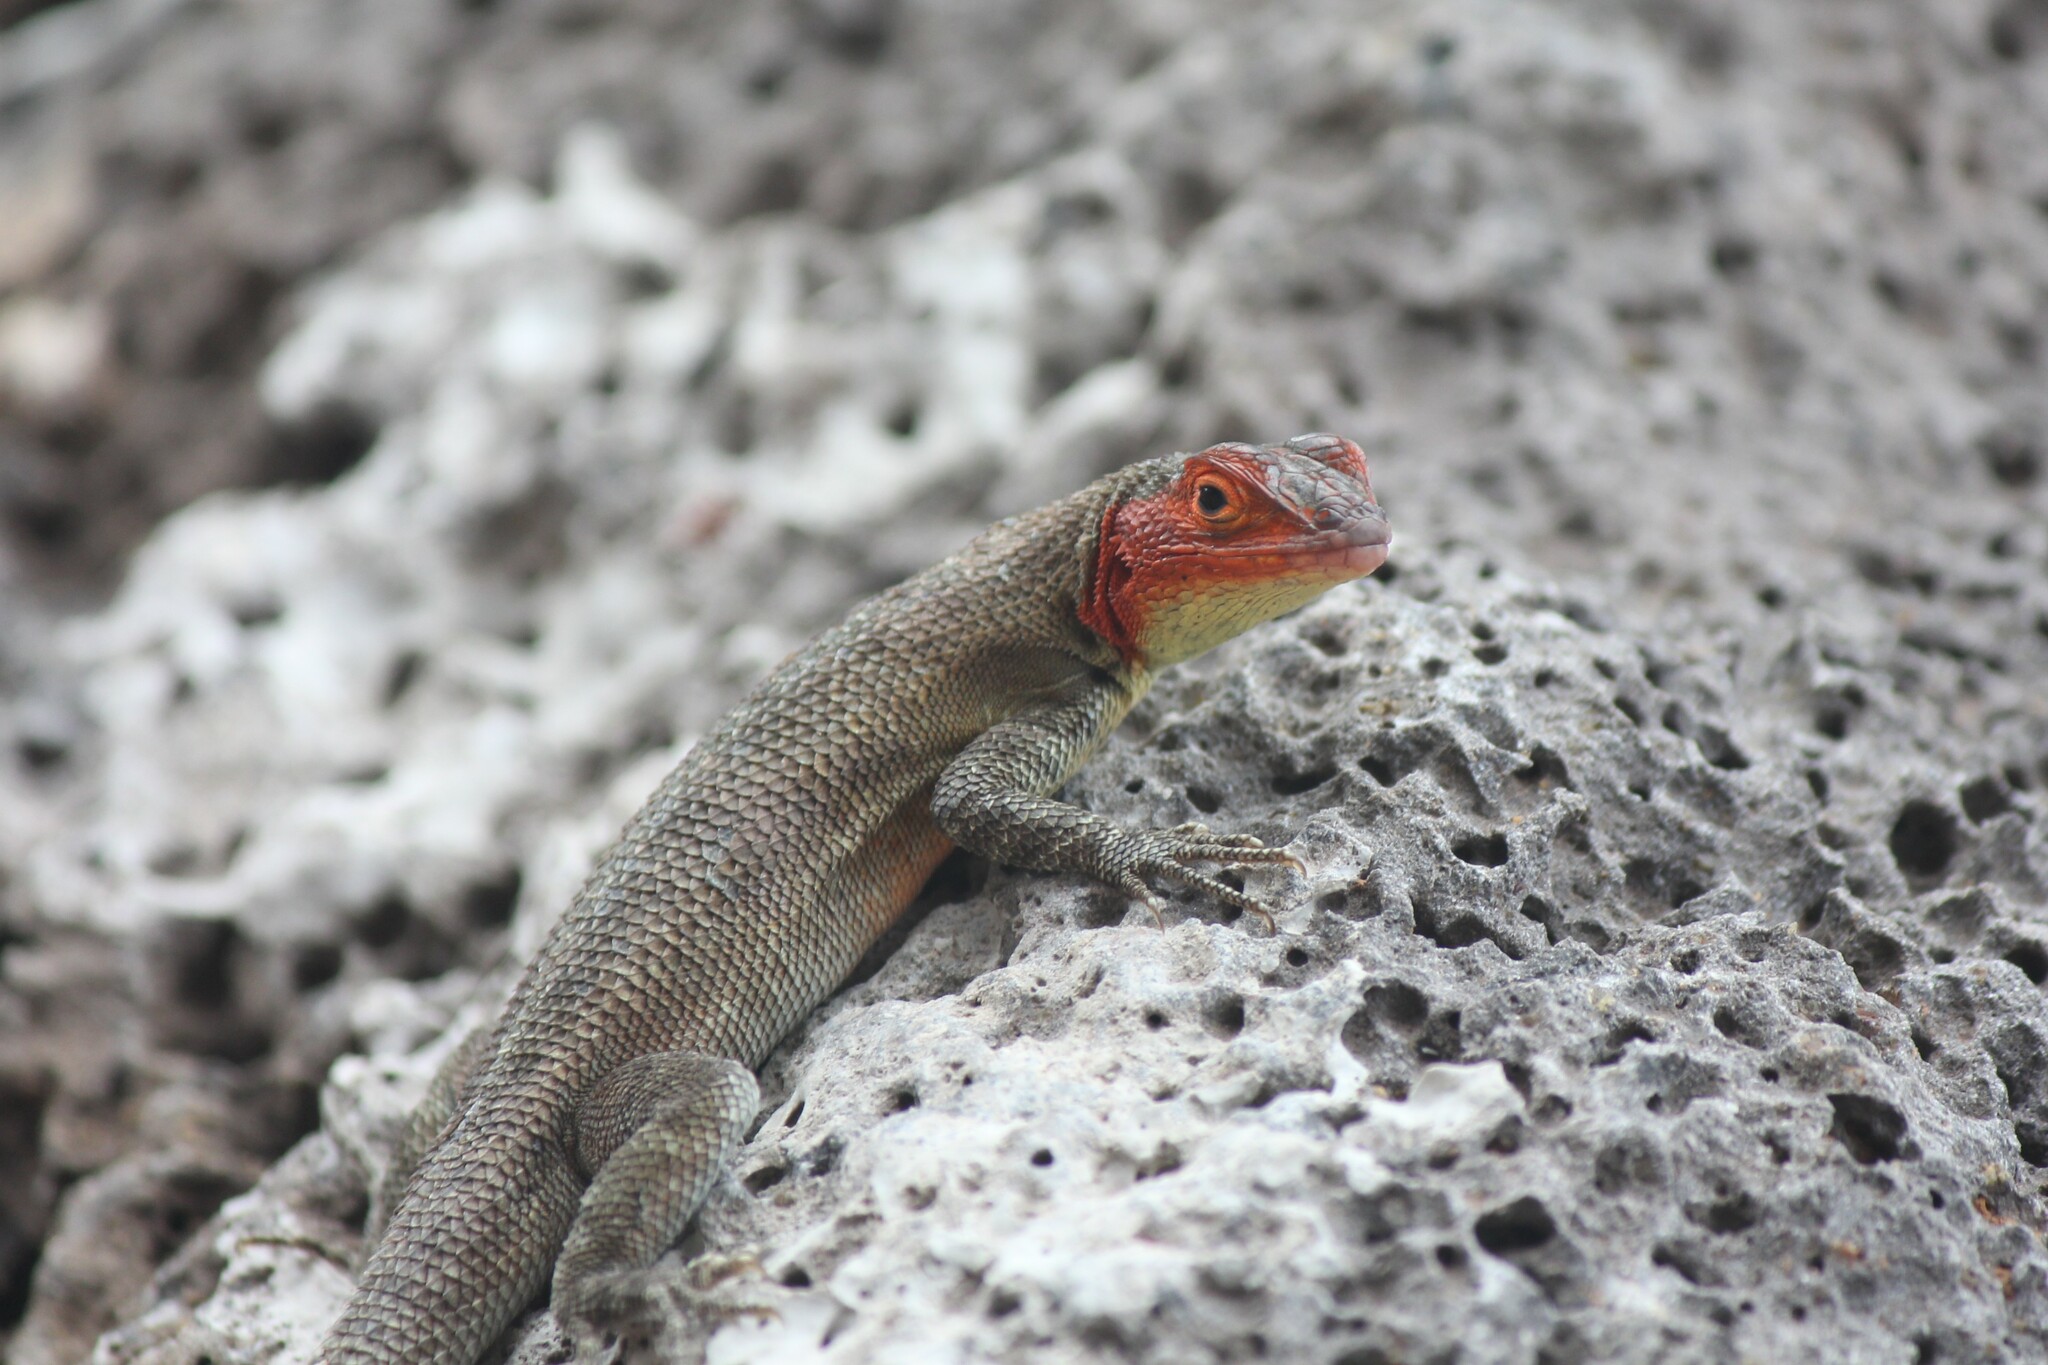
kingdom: Animalia
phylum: Chordata
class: Squamata
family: Tropiduridae
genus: Microlophus
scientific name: Microlophus indefatigabilis
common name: Galapagos lava lizard
